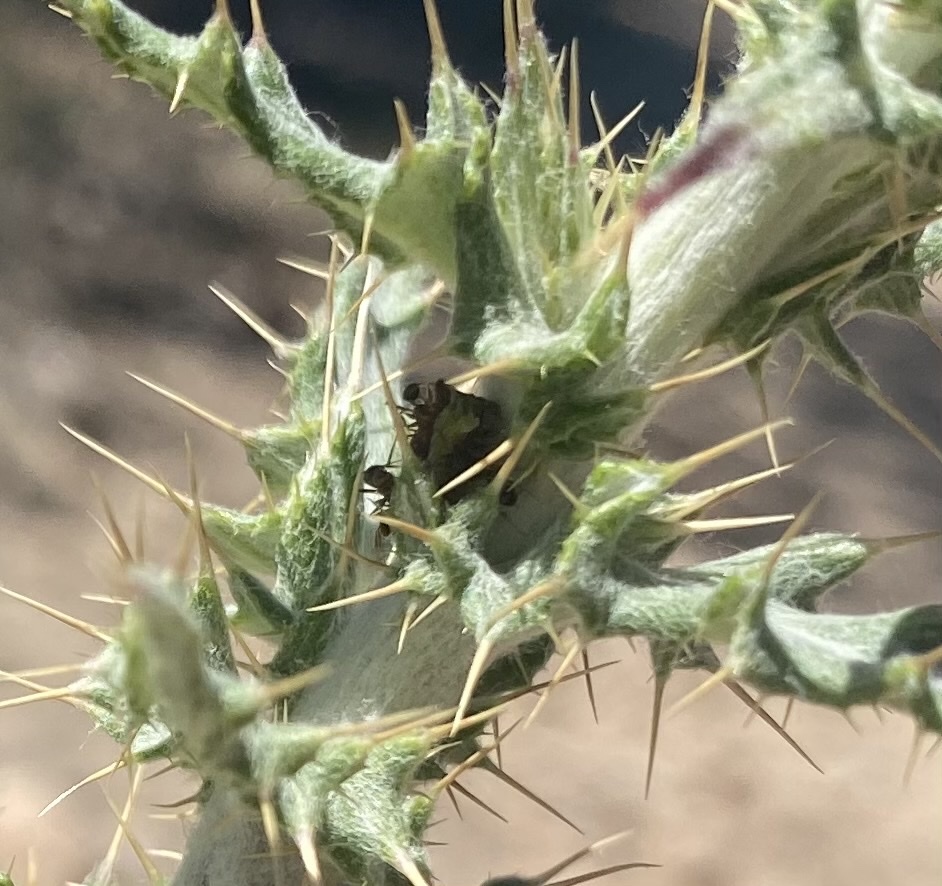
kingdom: Animalia
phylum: Arthropoda
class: Insecta
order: Hemiptera
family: Membracidae
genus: Publilia
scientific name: Publilia porrecta
